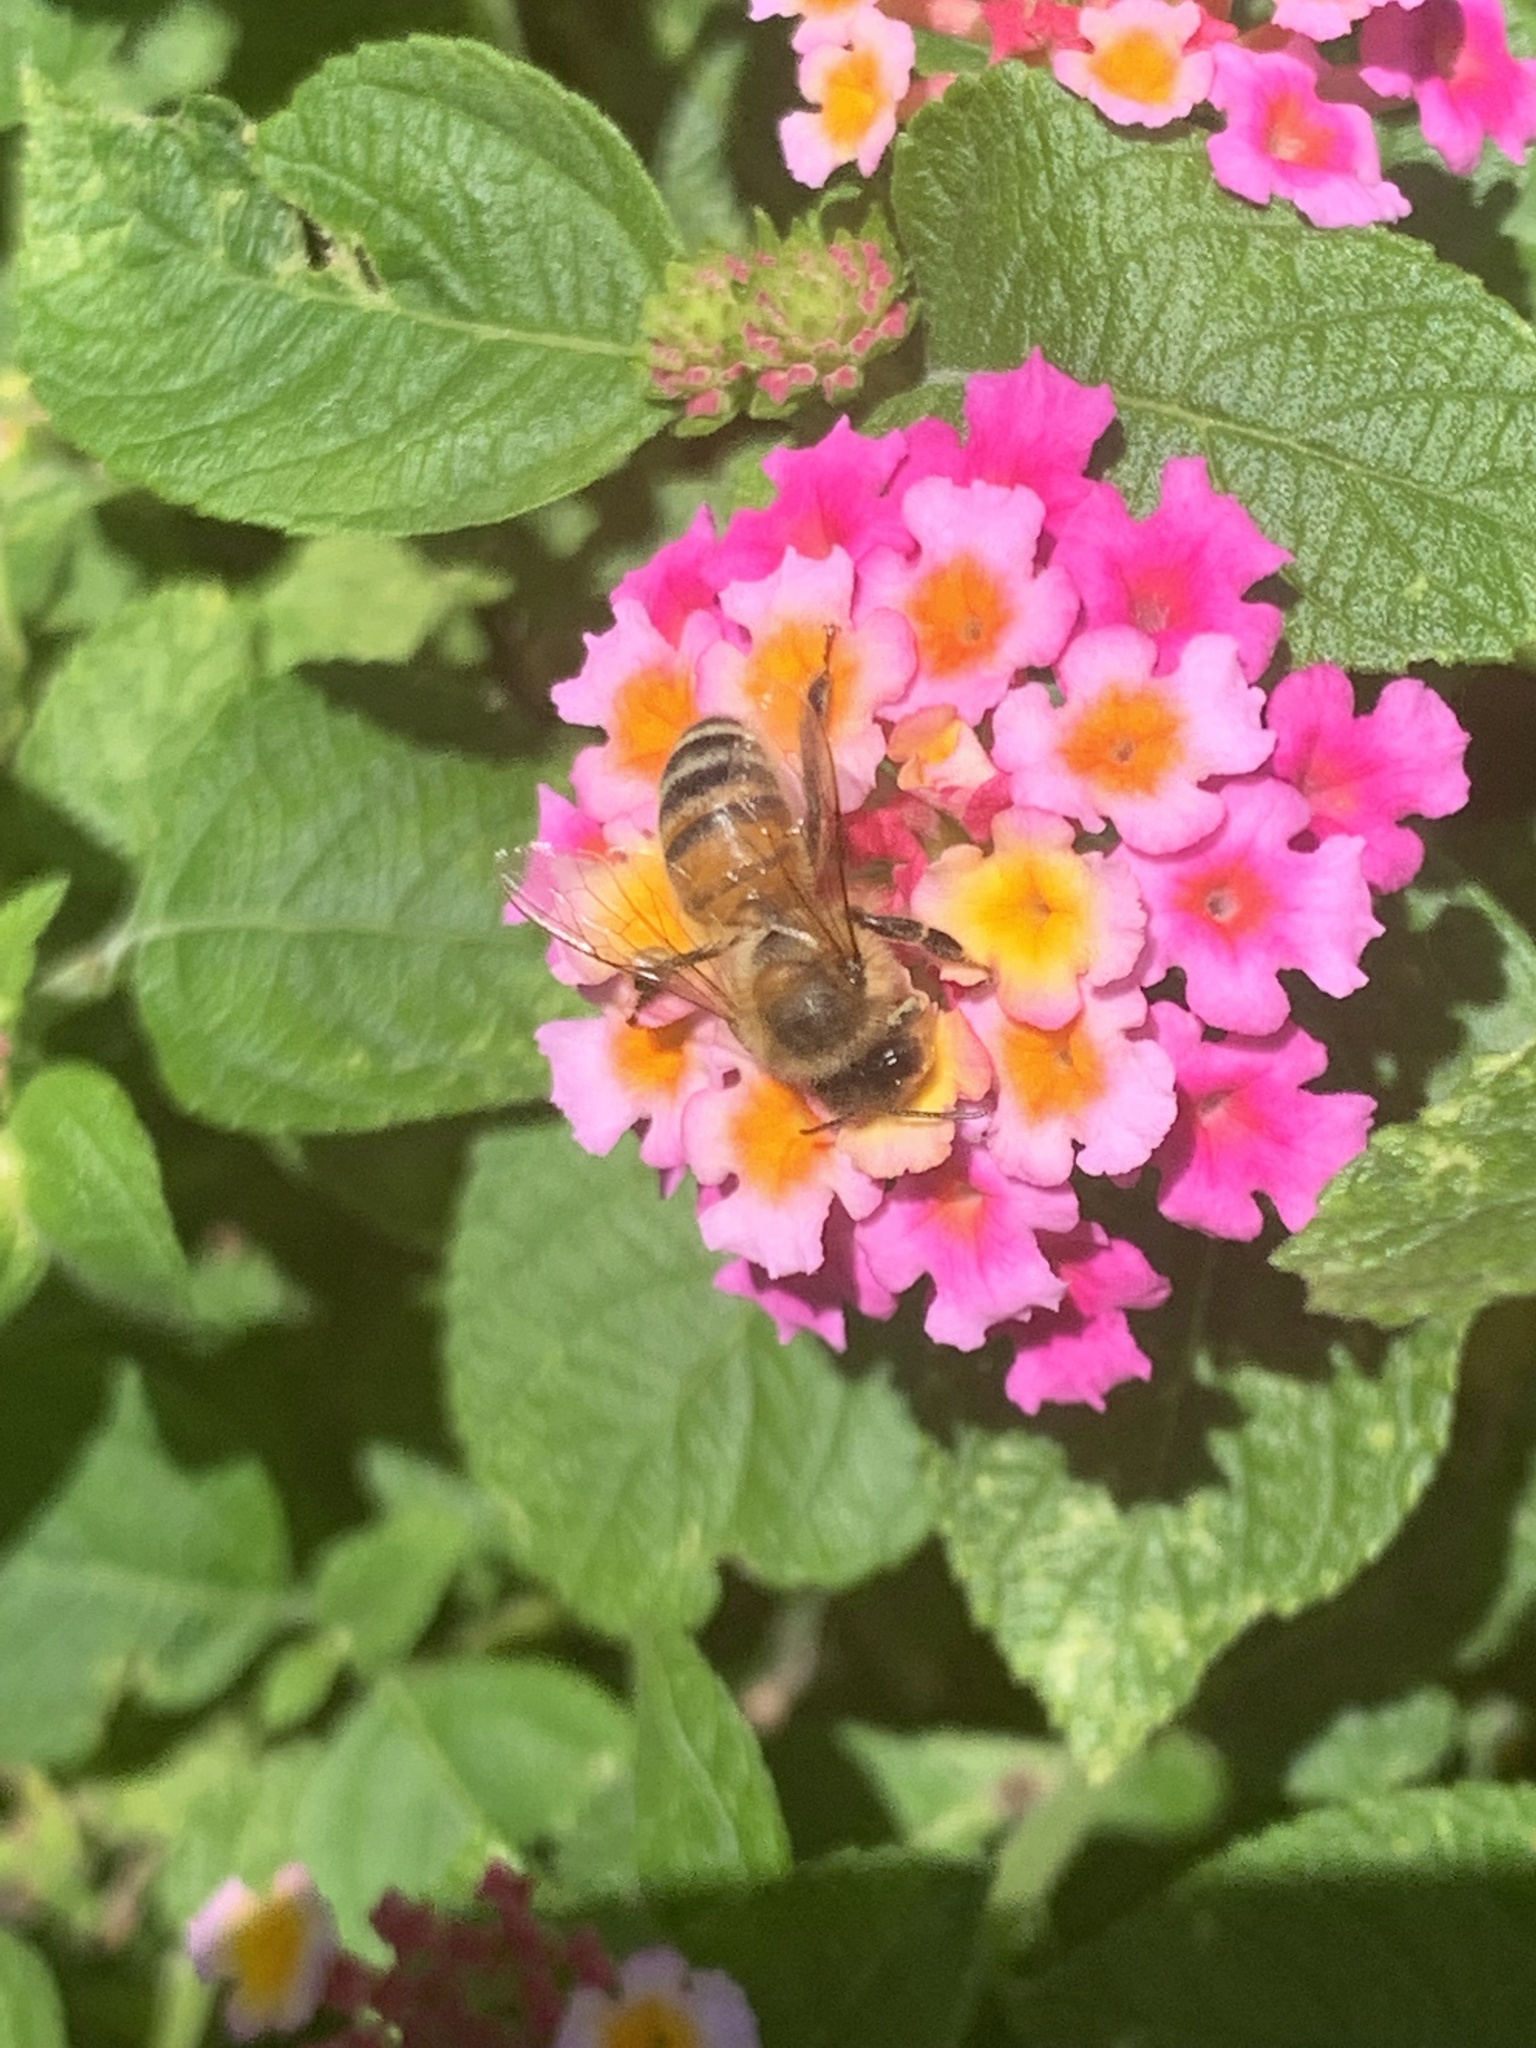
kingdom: Animalia
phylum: Arthropoda
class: Insecta
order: Hymenoptera
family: Apidae
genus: Apis
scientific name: Apis mellifera
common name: Honey bee
